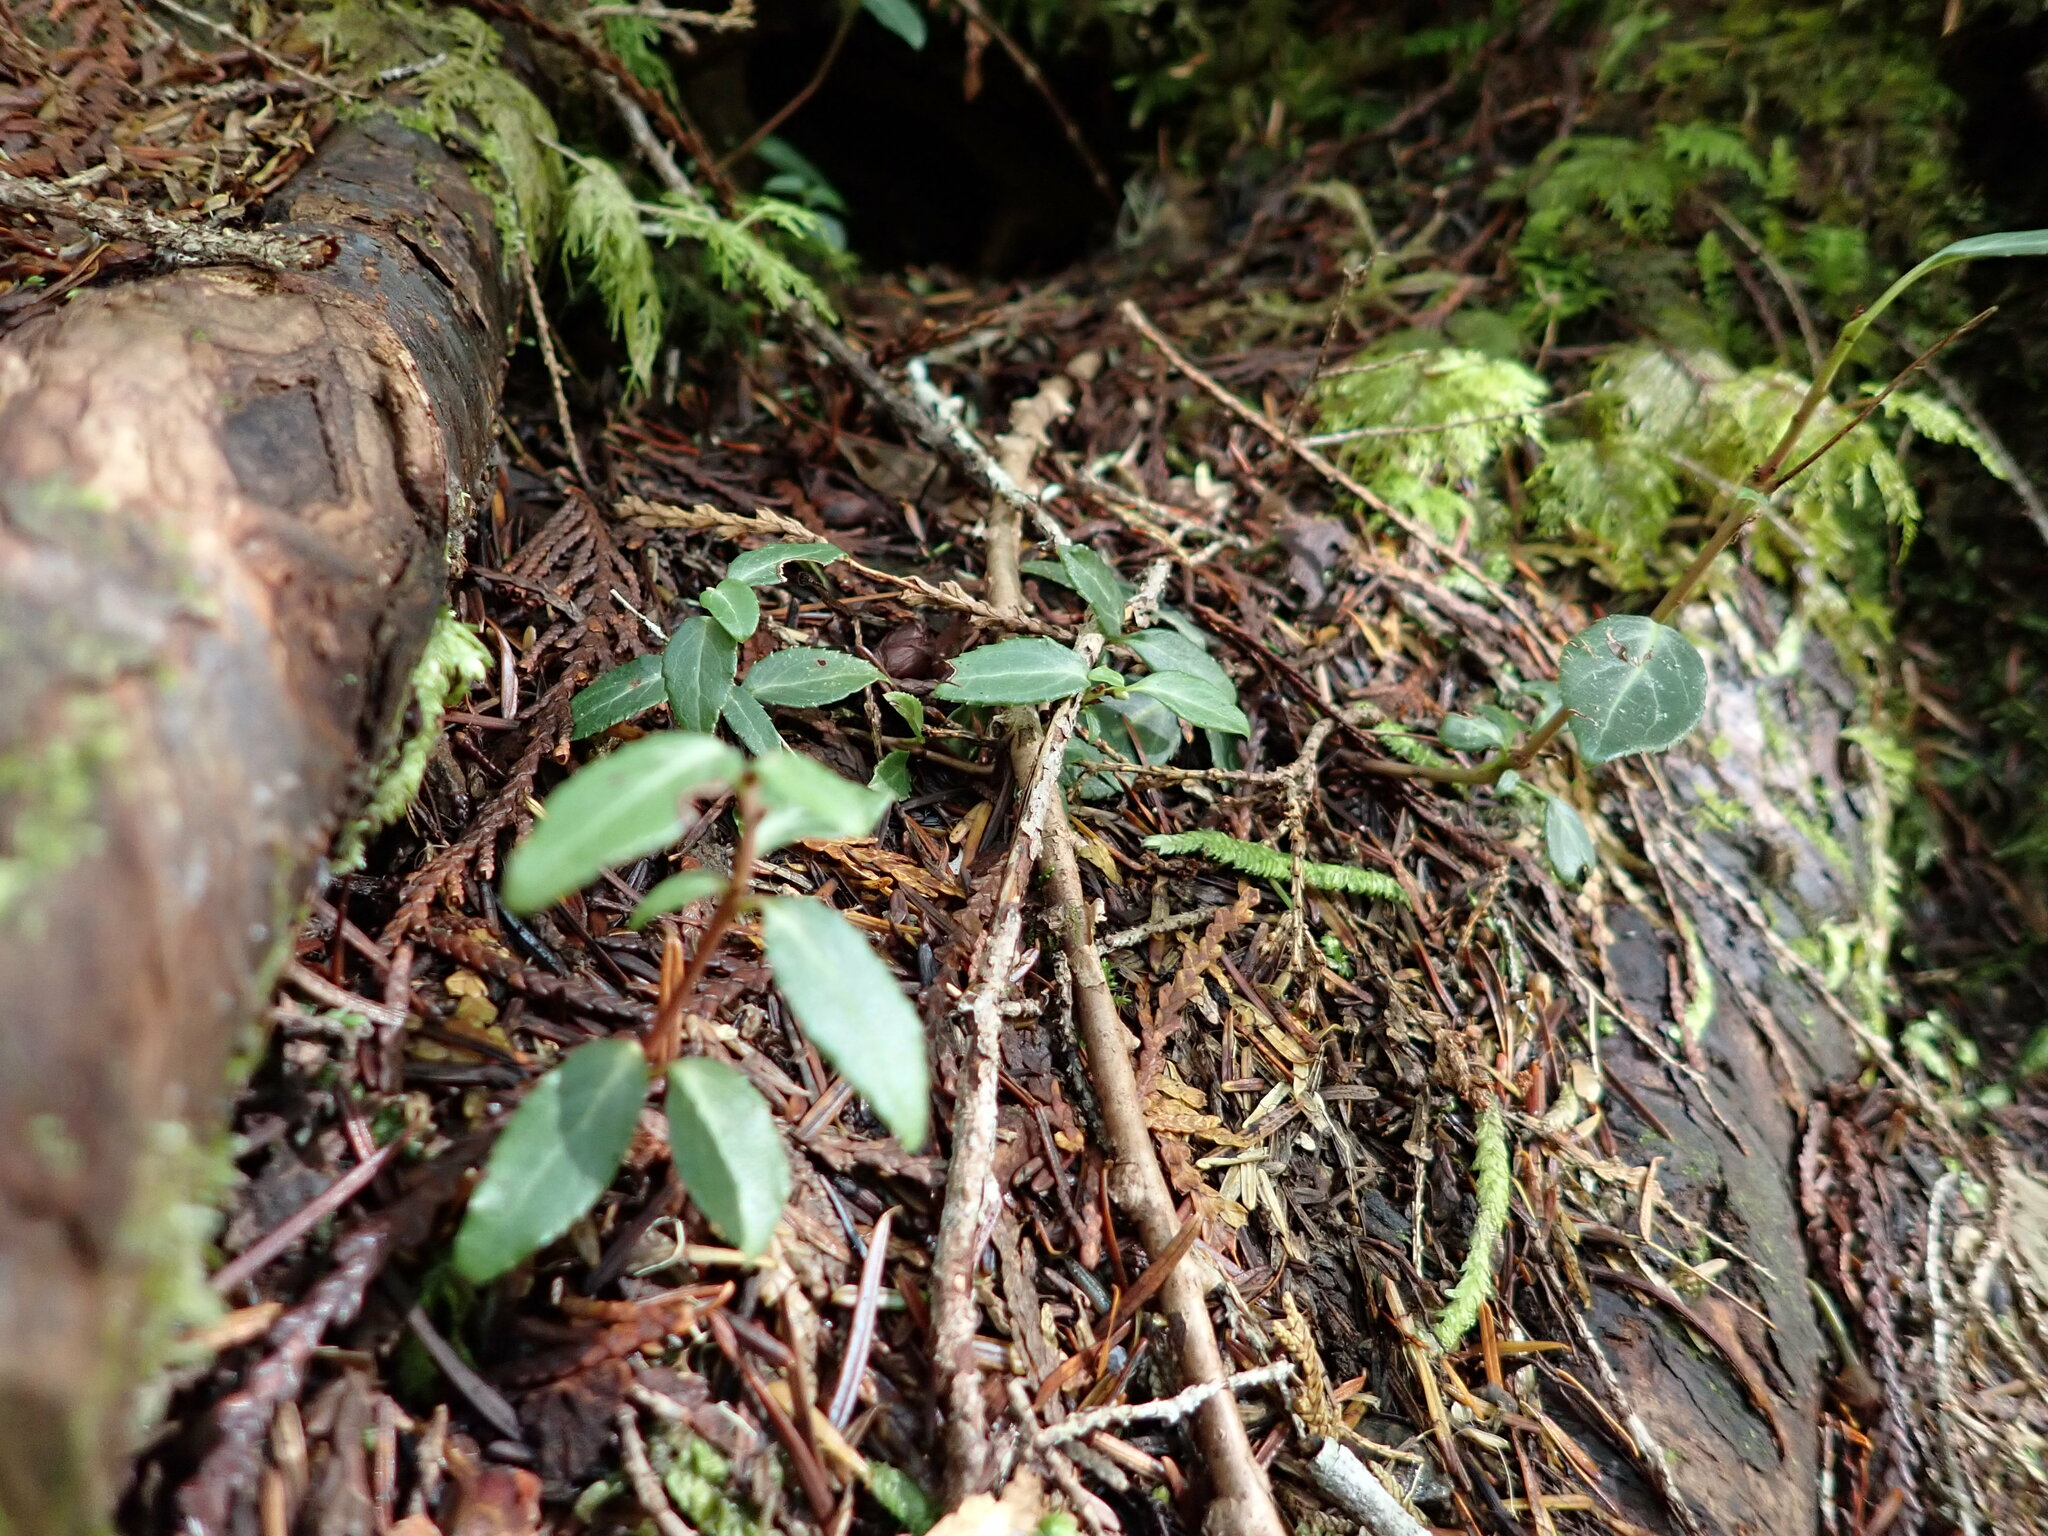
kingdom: Plantae
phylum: Tracheophyta
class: Magnoliopsida
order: Ericales
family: Ericaceae
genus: Chimaphila
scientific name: Chimaphila menziesii
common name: Menzies' pipsissewa
